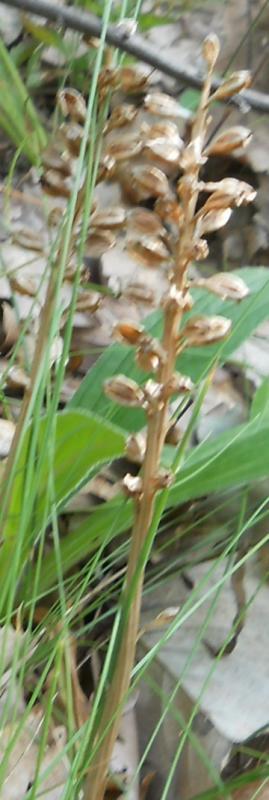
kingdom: Plantae
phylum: Tracheophyta
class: Liliopsida
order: Asparagales
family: Orchidaceae
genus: Neottia
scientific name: Neottia nidus-avis
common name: Bird's-nest orchid
